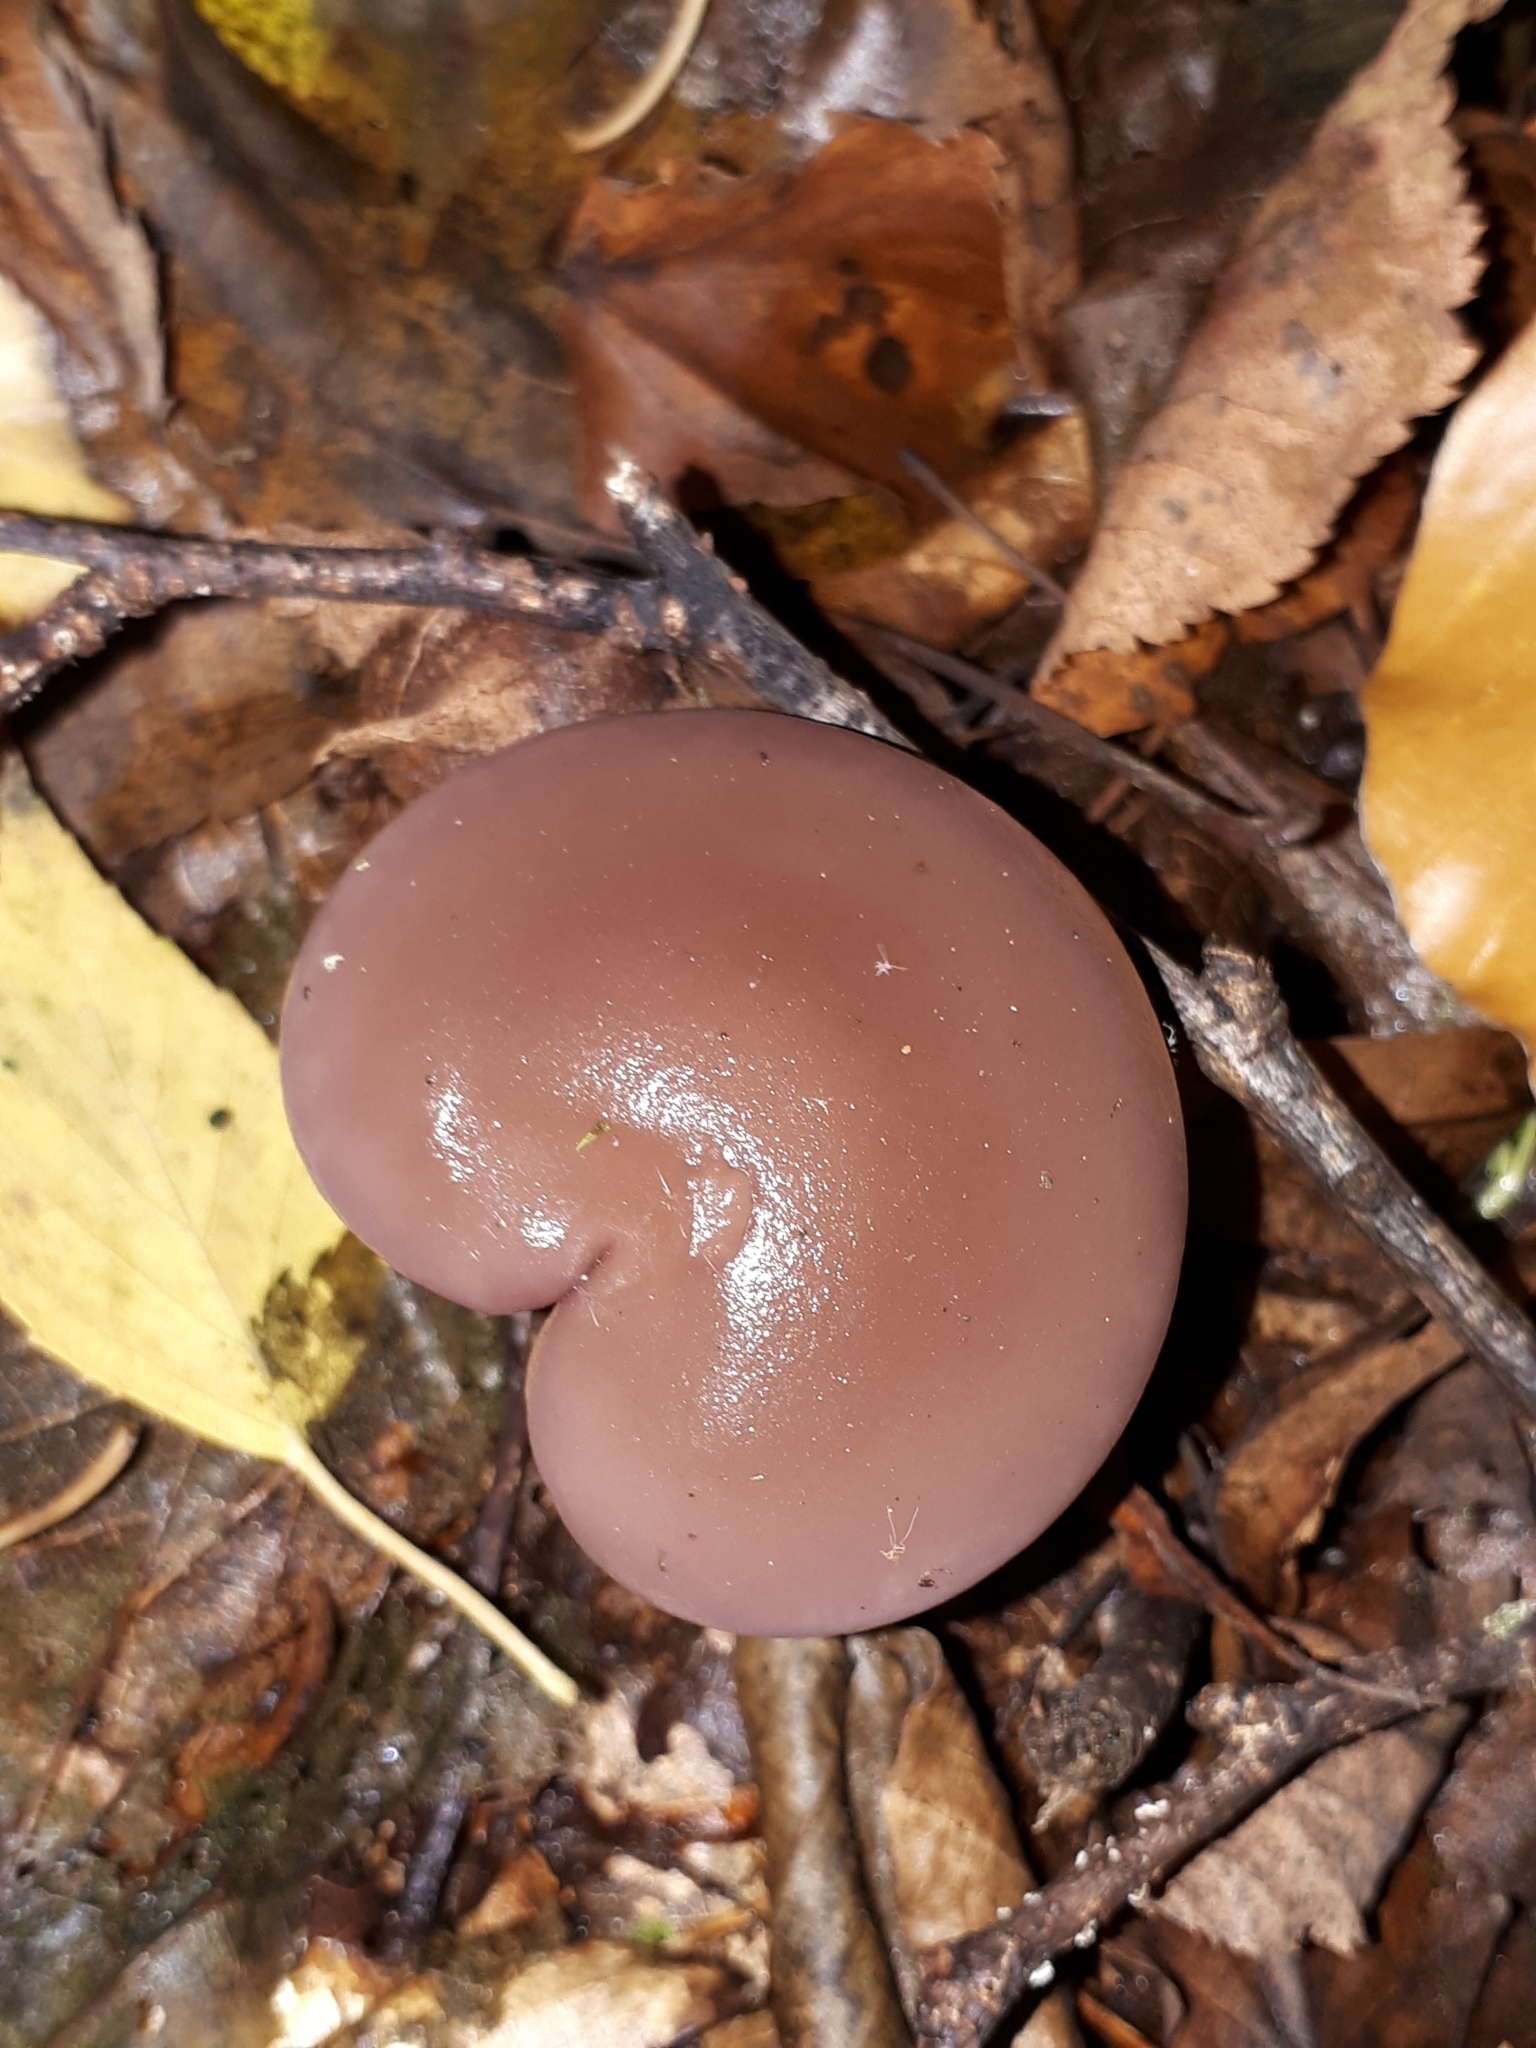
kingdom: Fungi
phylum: Basidiomycota
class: Agaricomycetes
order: Agaricales
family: Tricholomataceae
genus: Collybia
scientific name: Collybia
